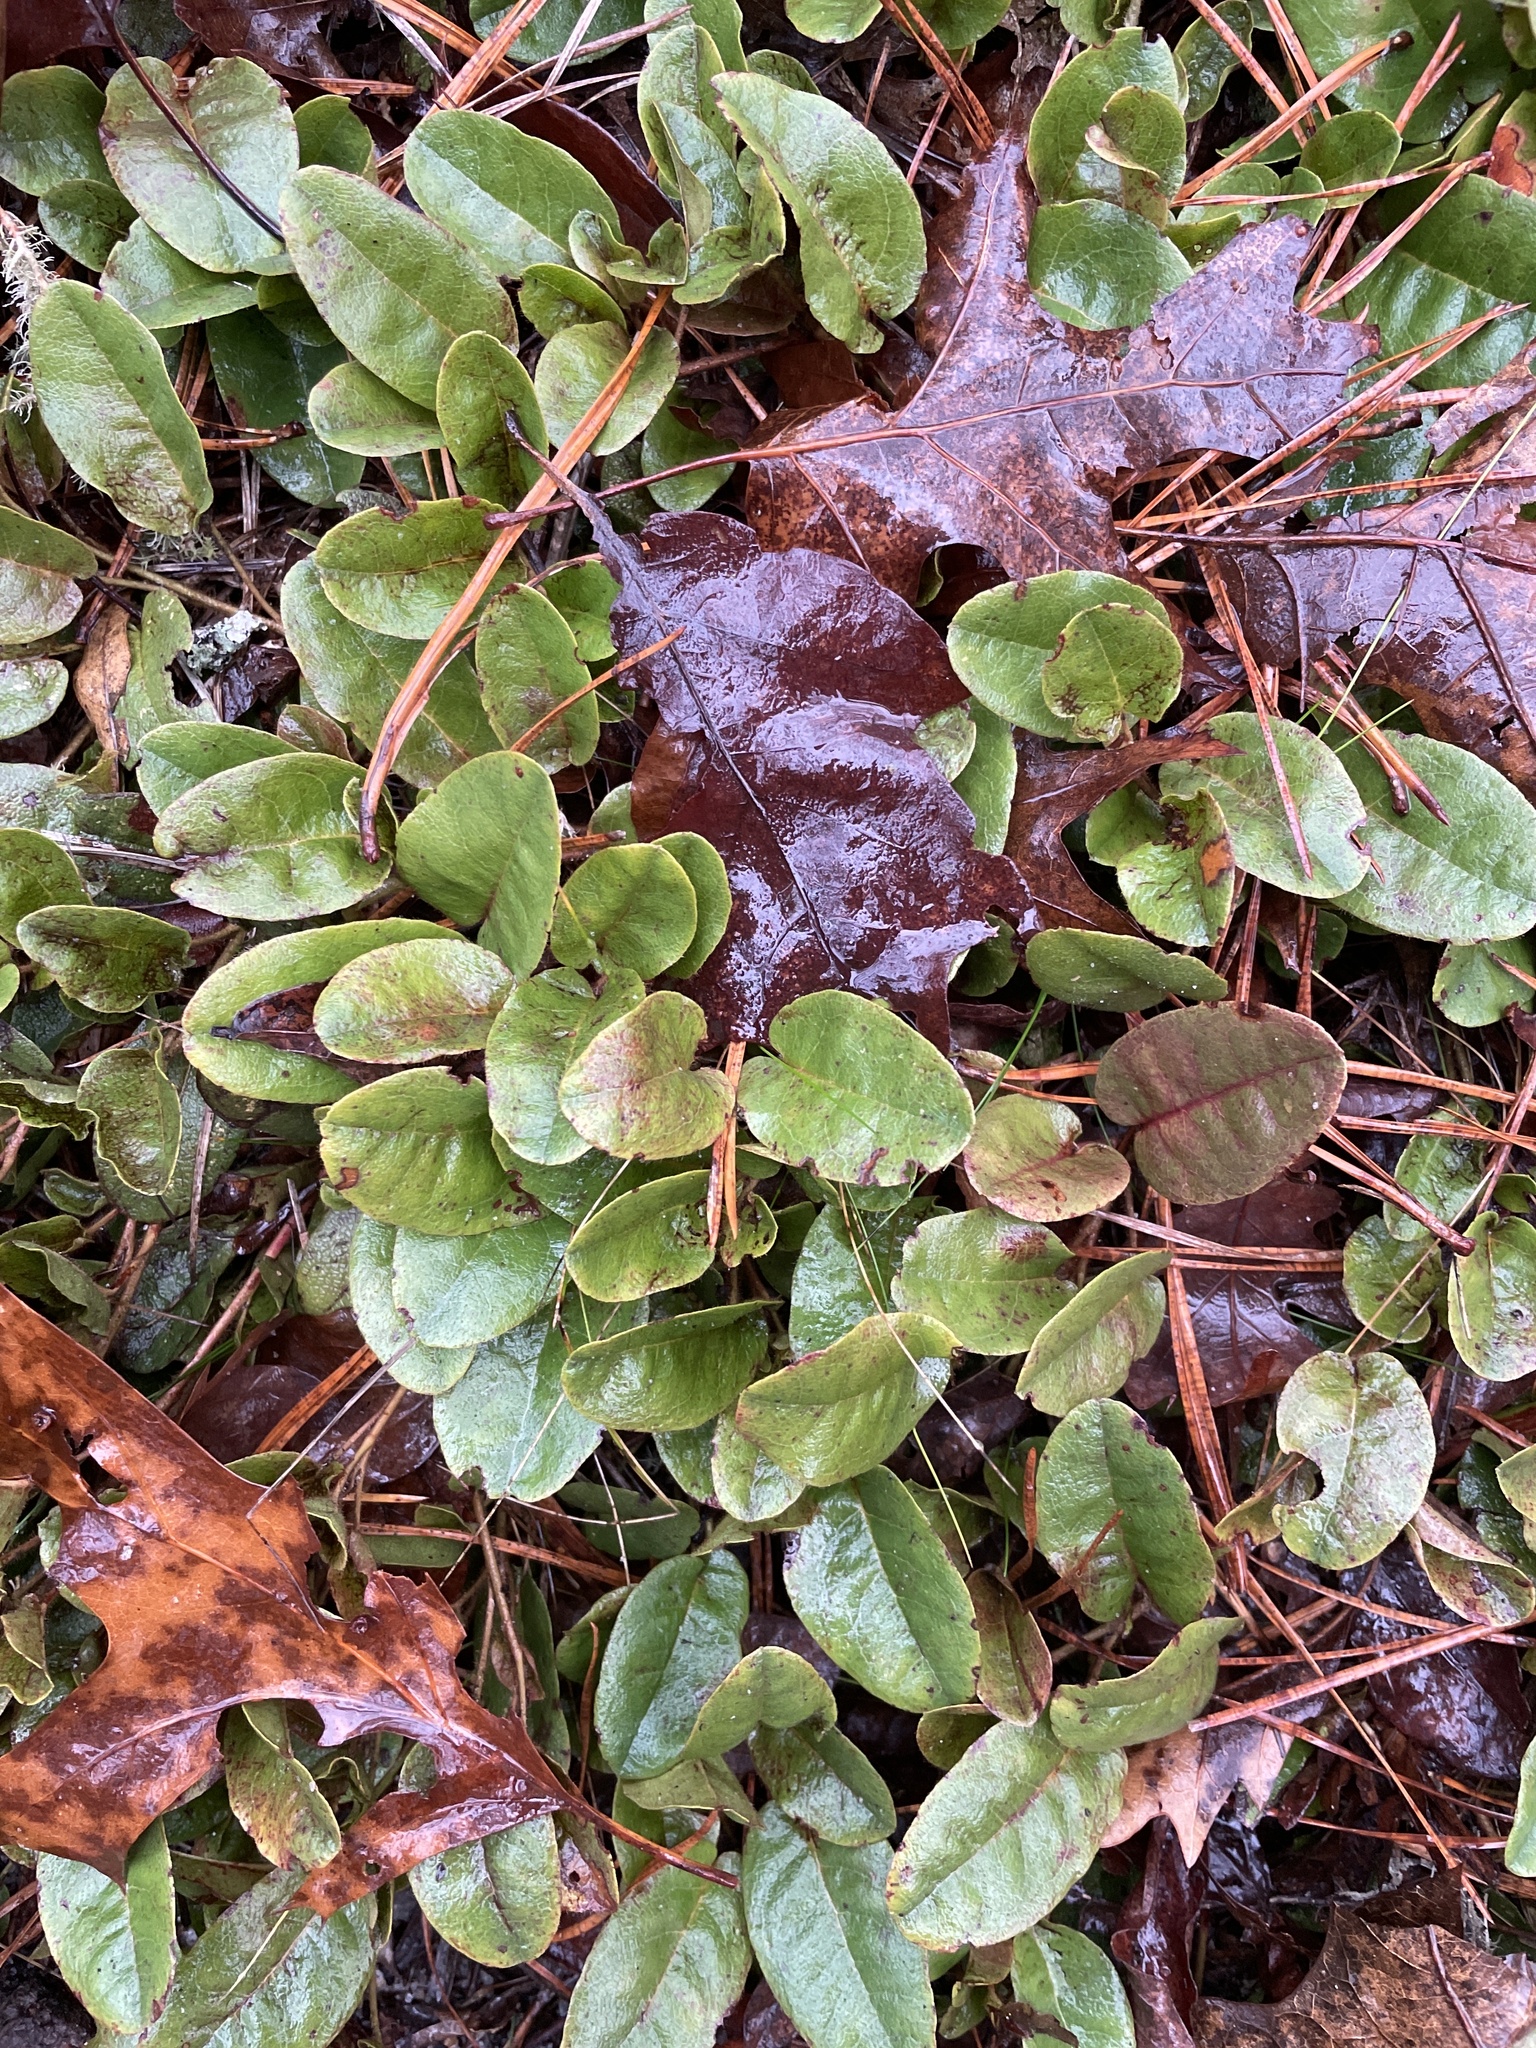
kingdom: Plantae
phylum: Tracheophyta
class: Magnoliopsida
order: Ericales
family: Ericaceae
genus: Epigaea
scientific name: Epigaea repens
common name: Gravelroot
